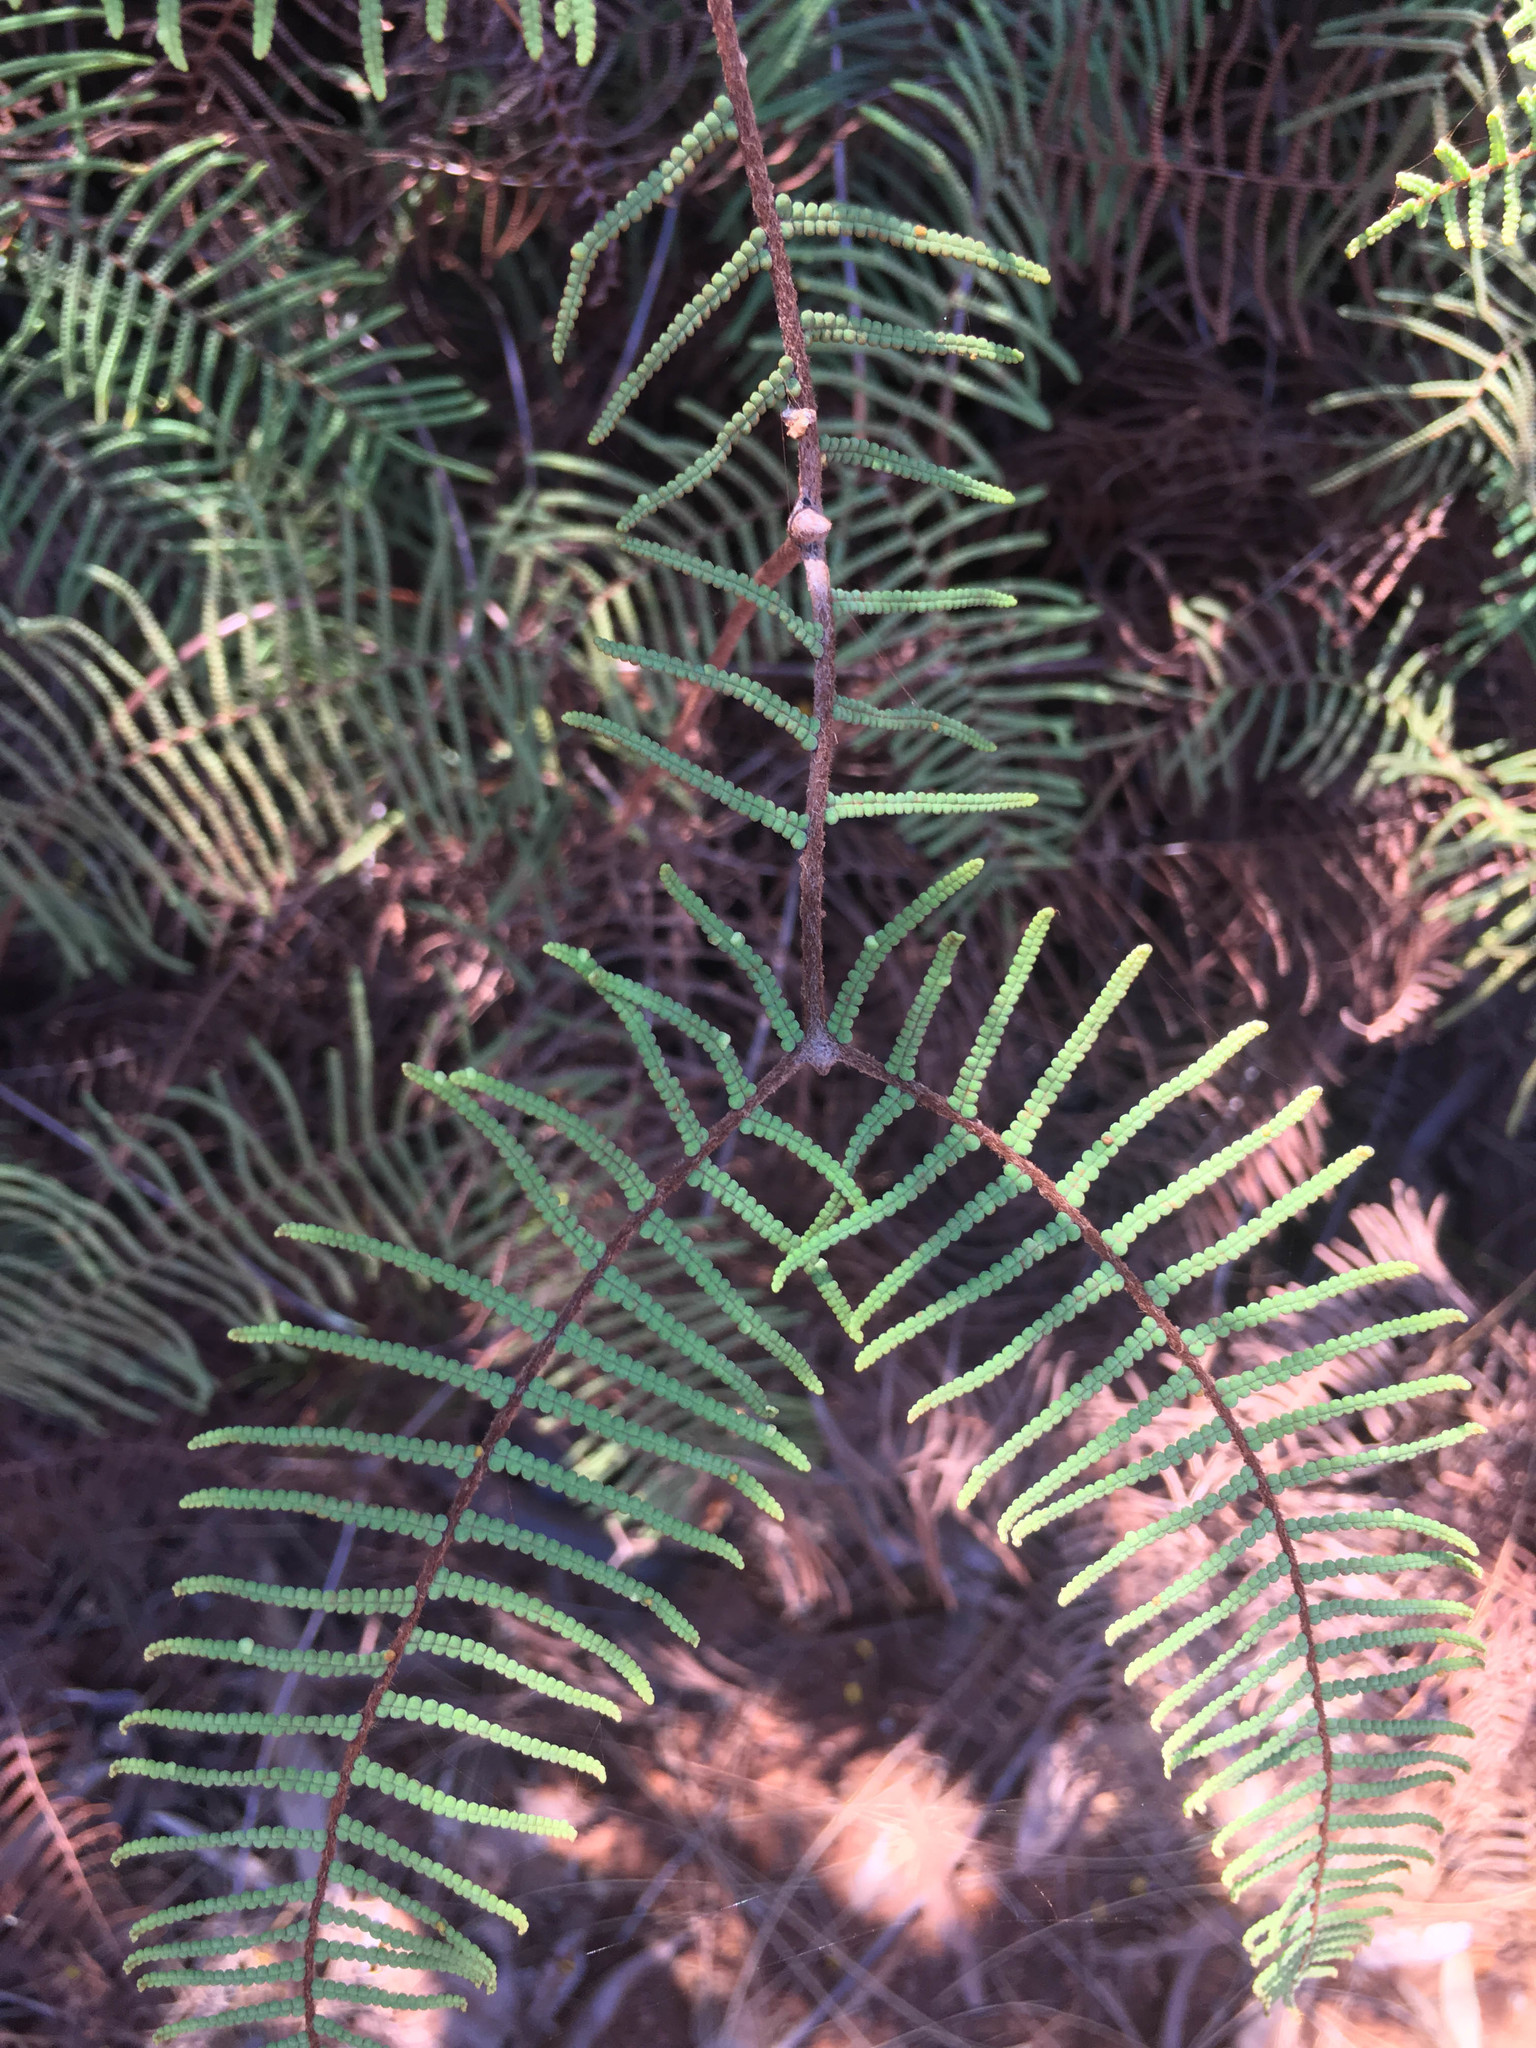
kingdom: Plantae
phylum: Tracheophyta
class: Polypodiopsida
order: Gleicheniales
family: Gleicheniaceae
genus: Gleichenia
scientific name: Gleichenia dicarpa
